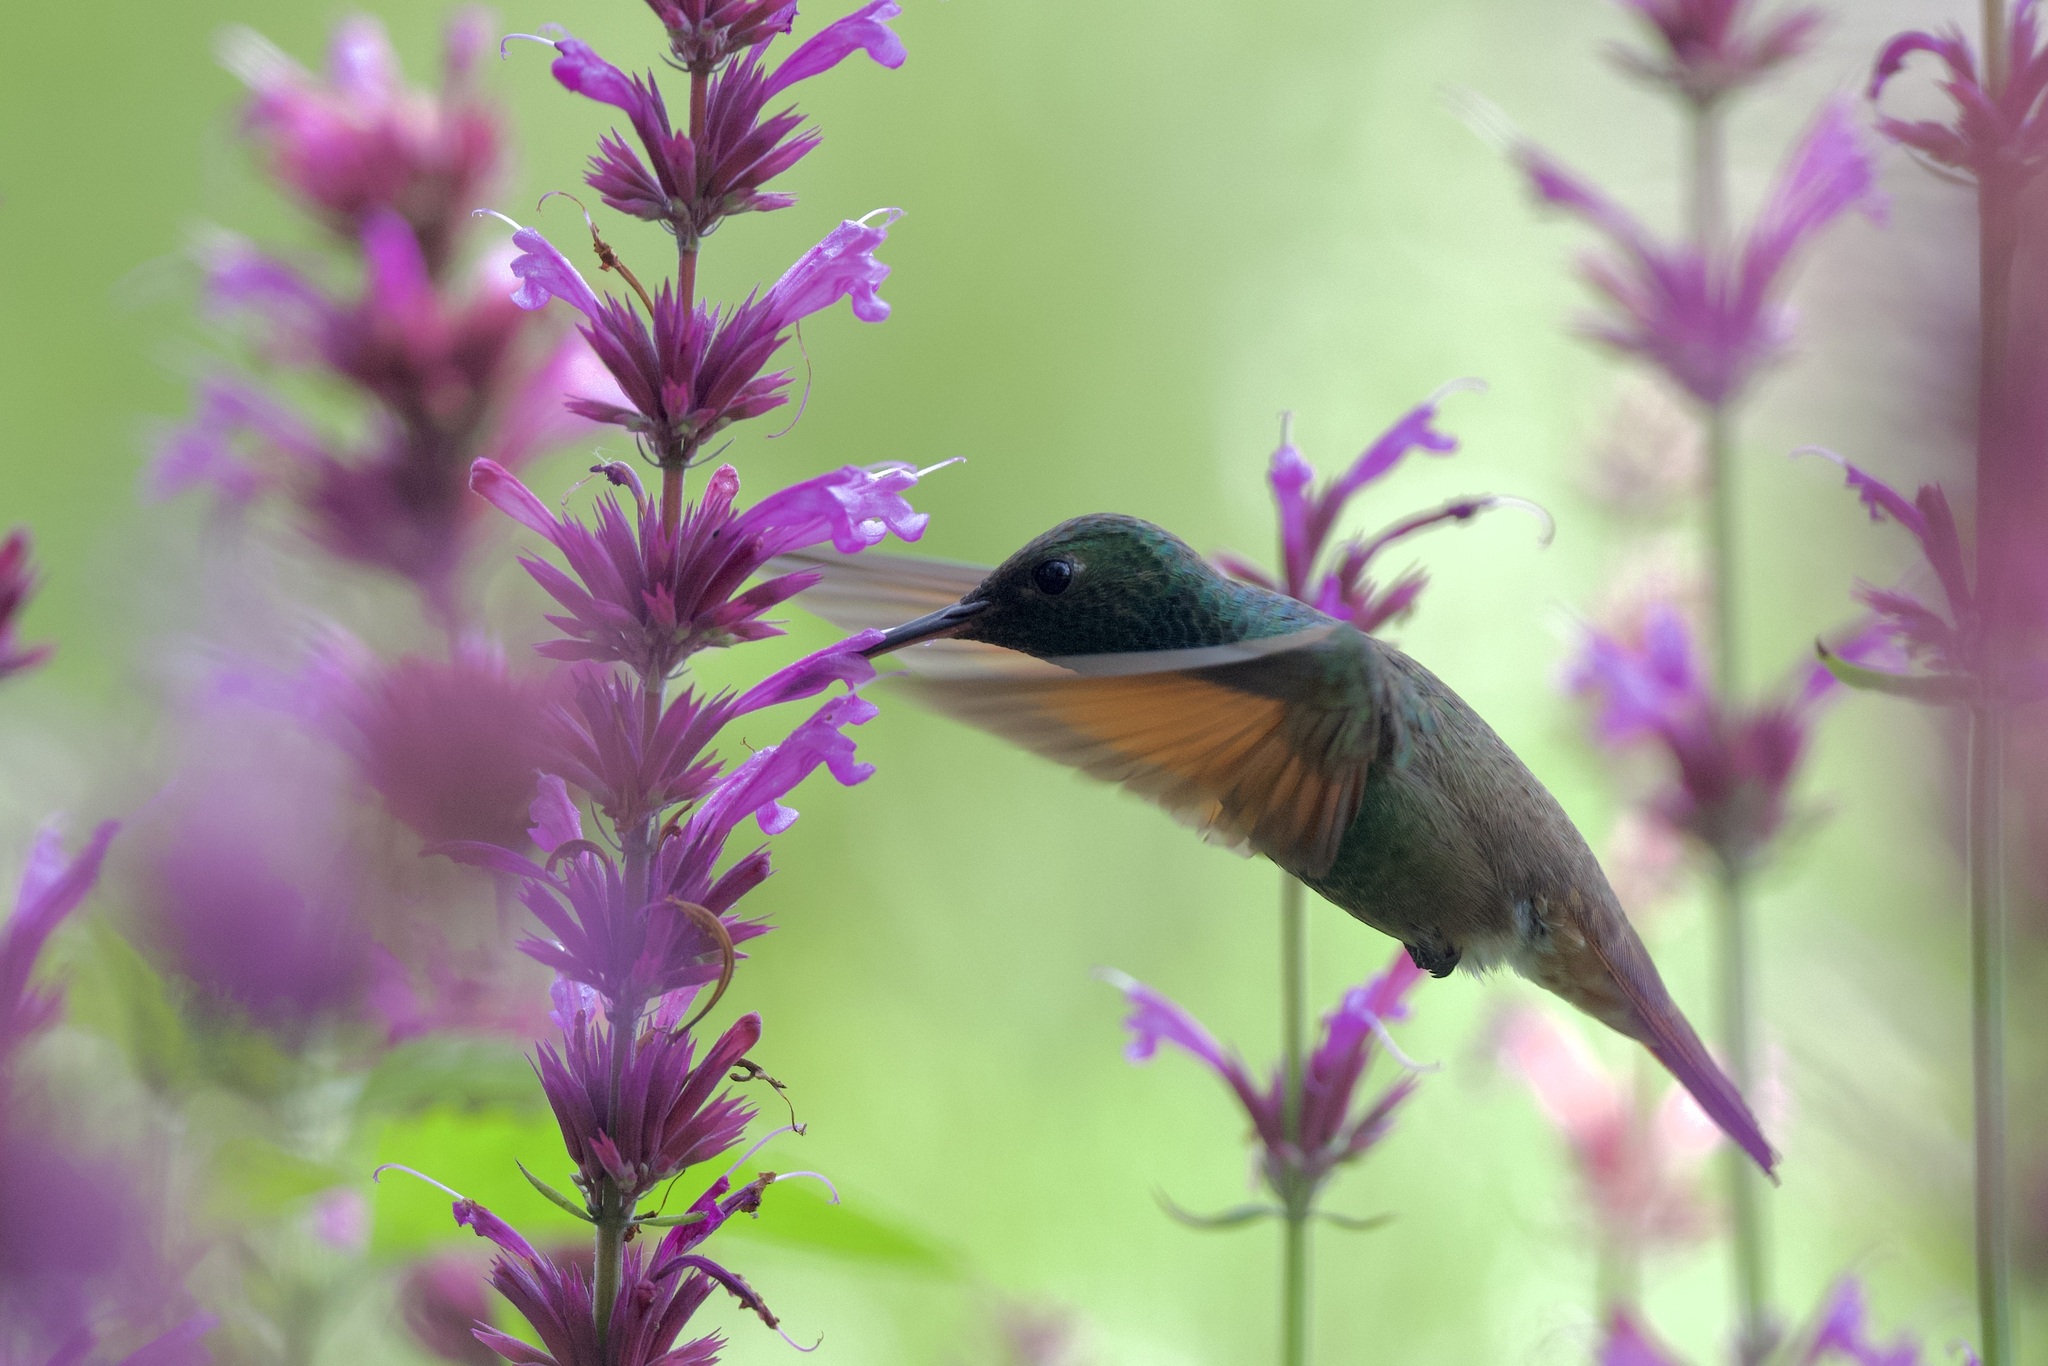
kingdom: Animalia
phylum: Chordata
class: Aves
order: Apodiformes
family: Trochilidae
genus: Saucerottia
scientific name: Saucerottia beryllina
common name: Berylline hummingbird
